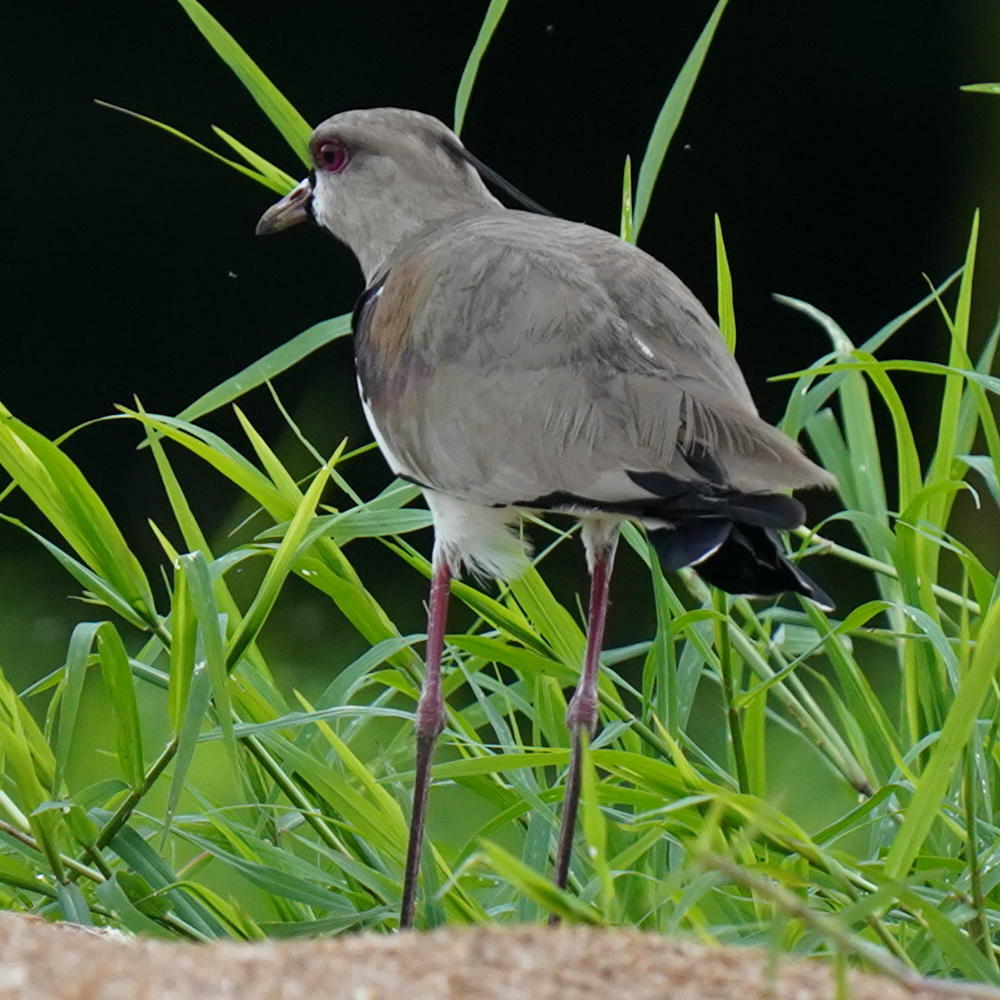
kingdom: Animalia
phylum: Chordata
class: Aves
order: Charadriiformes
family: Charadriidae
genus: Vanellus
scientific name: Vanellus chilensis
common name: Southern lapwing
